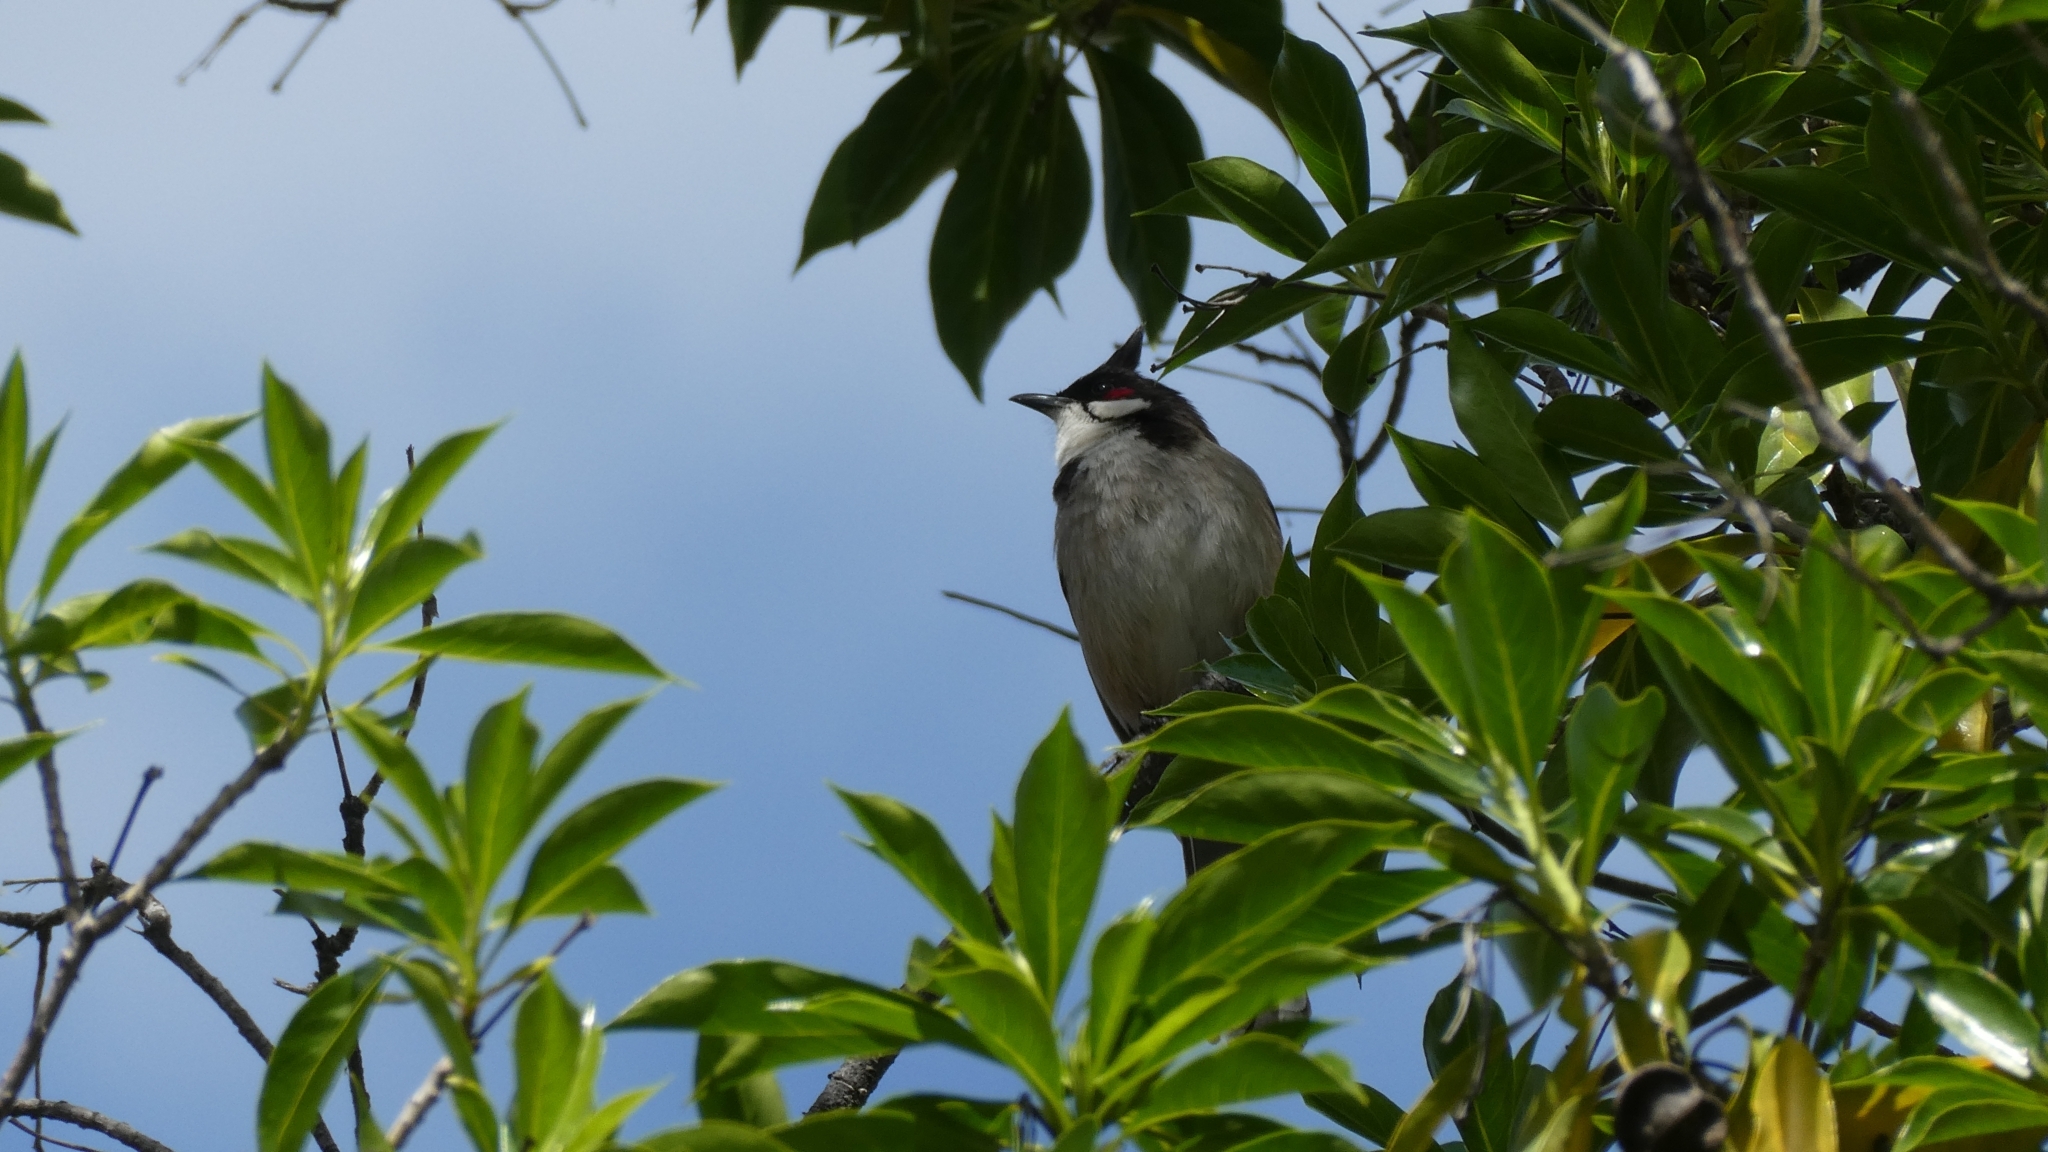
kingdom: Animalia
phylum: Chordata
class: Aves
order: Passeriformes
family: Pycnonotidae
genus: Pycnonotus
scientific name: Pycnonotus jocosus
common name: Red-whiskered bulbul
